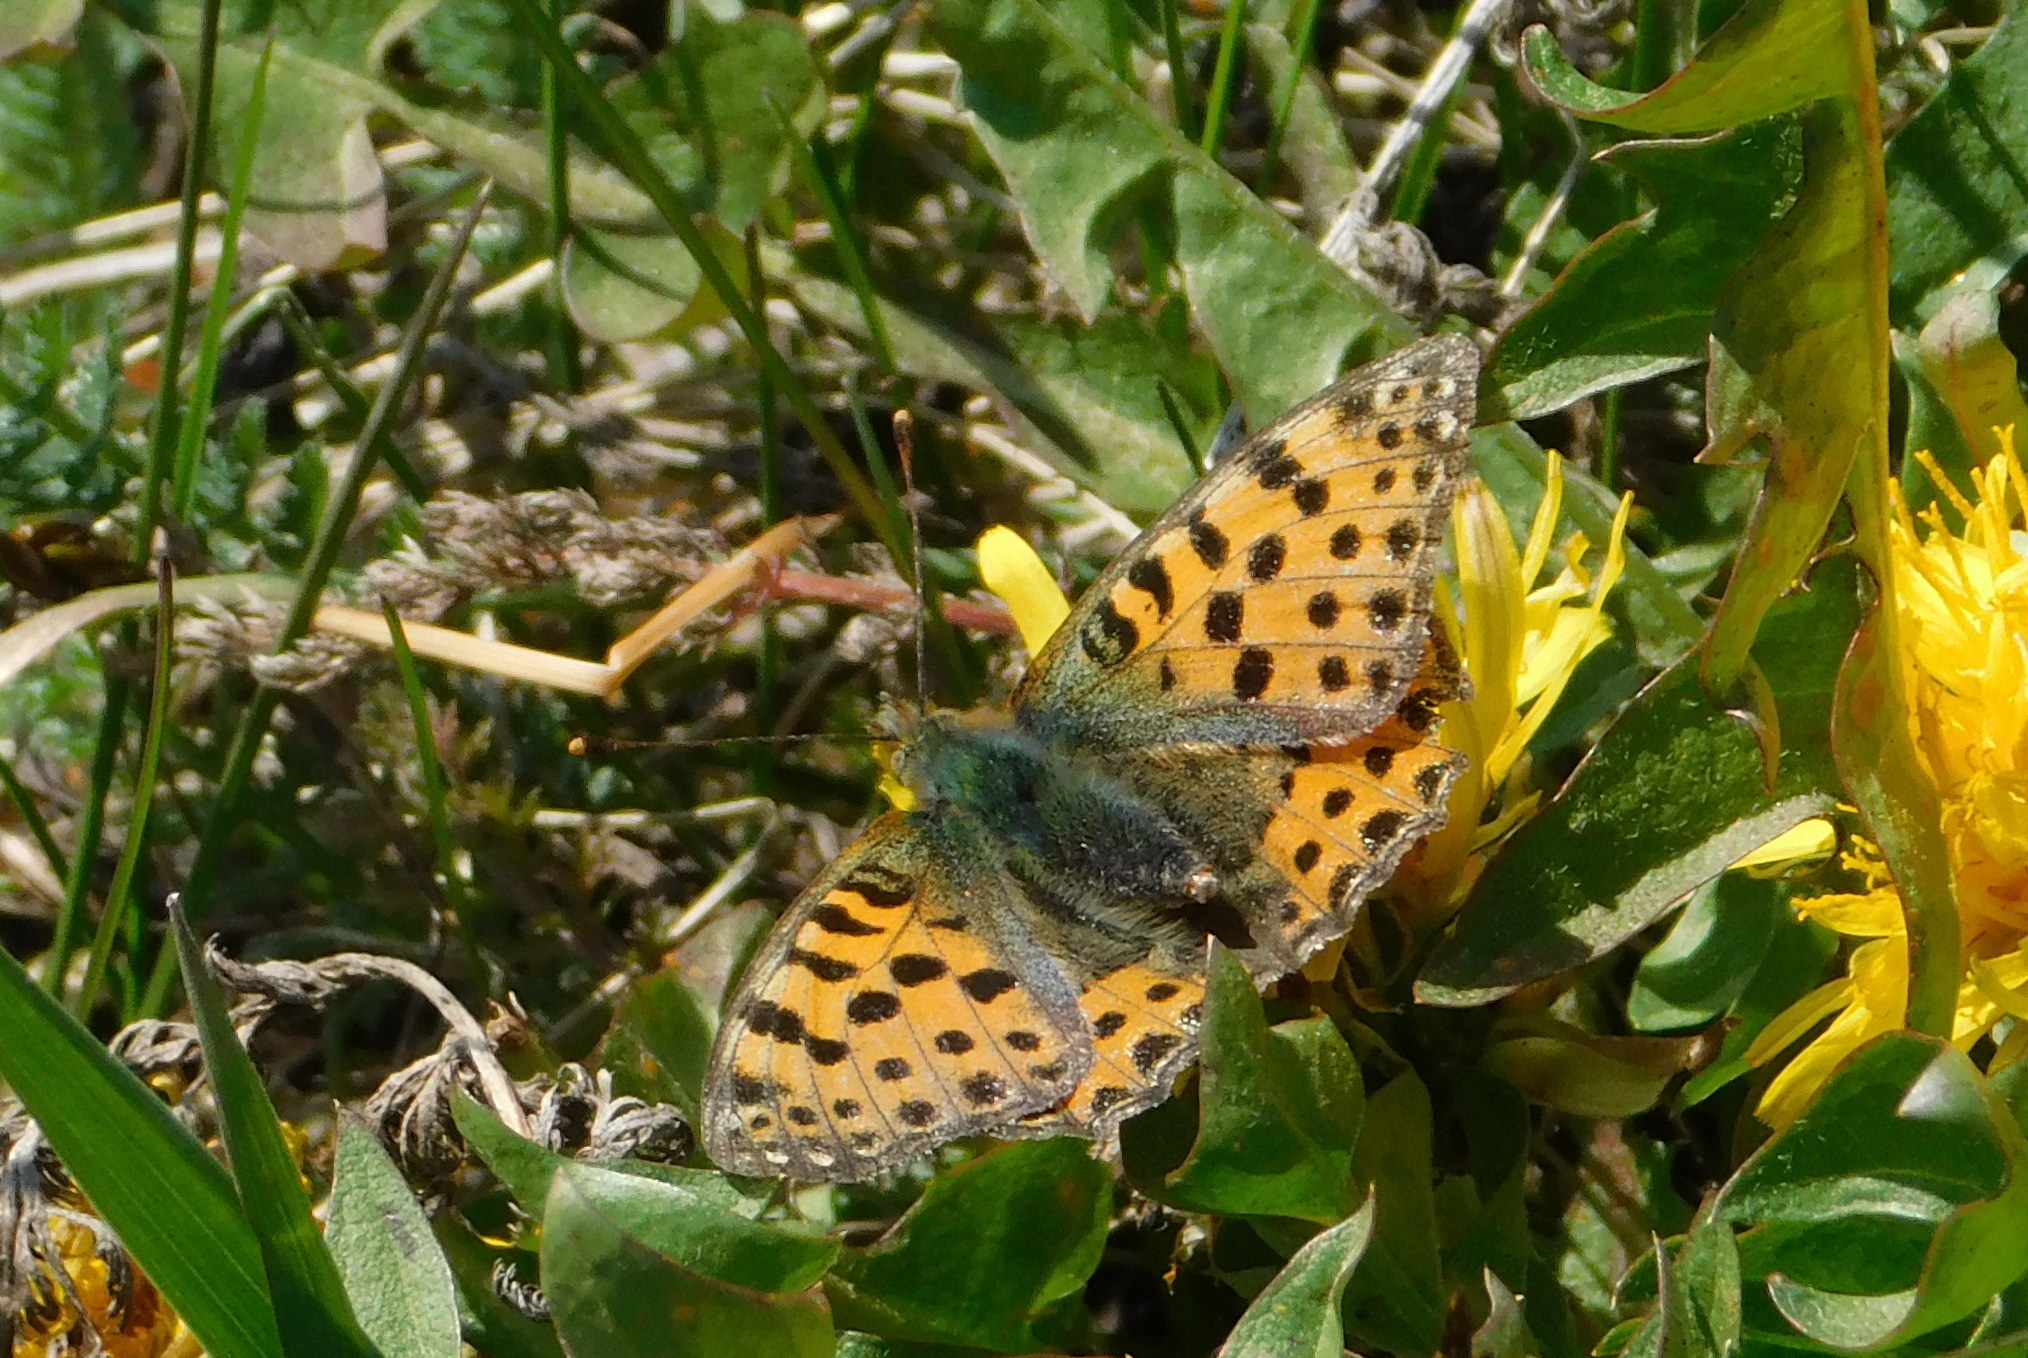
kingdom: Animalia
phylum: Arthropoda
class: Insecta
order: Lepidoptera
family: Nymphalidae
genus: Issoria
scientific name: Issoria lathonia
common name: Queen of spain fritillary
